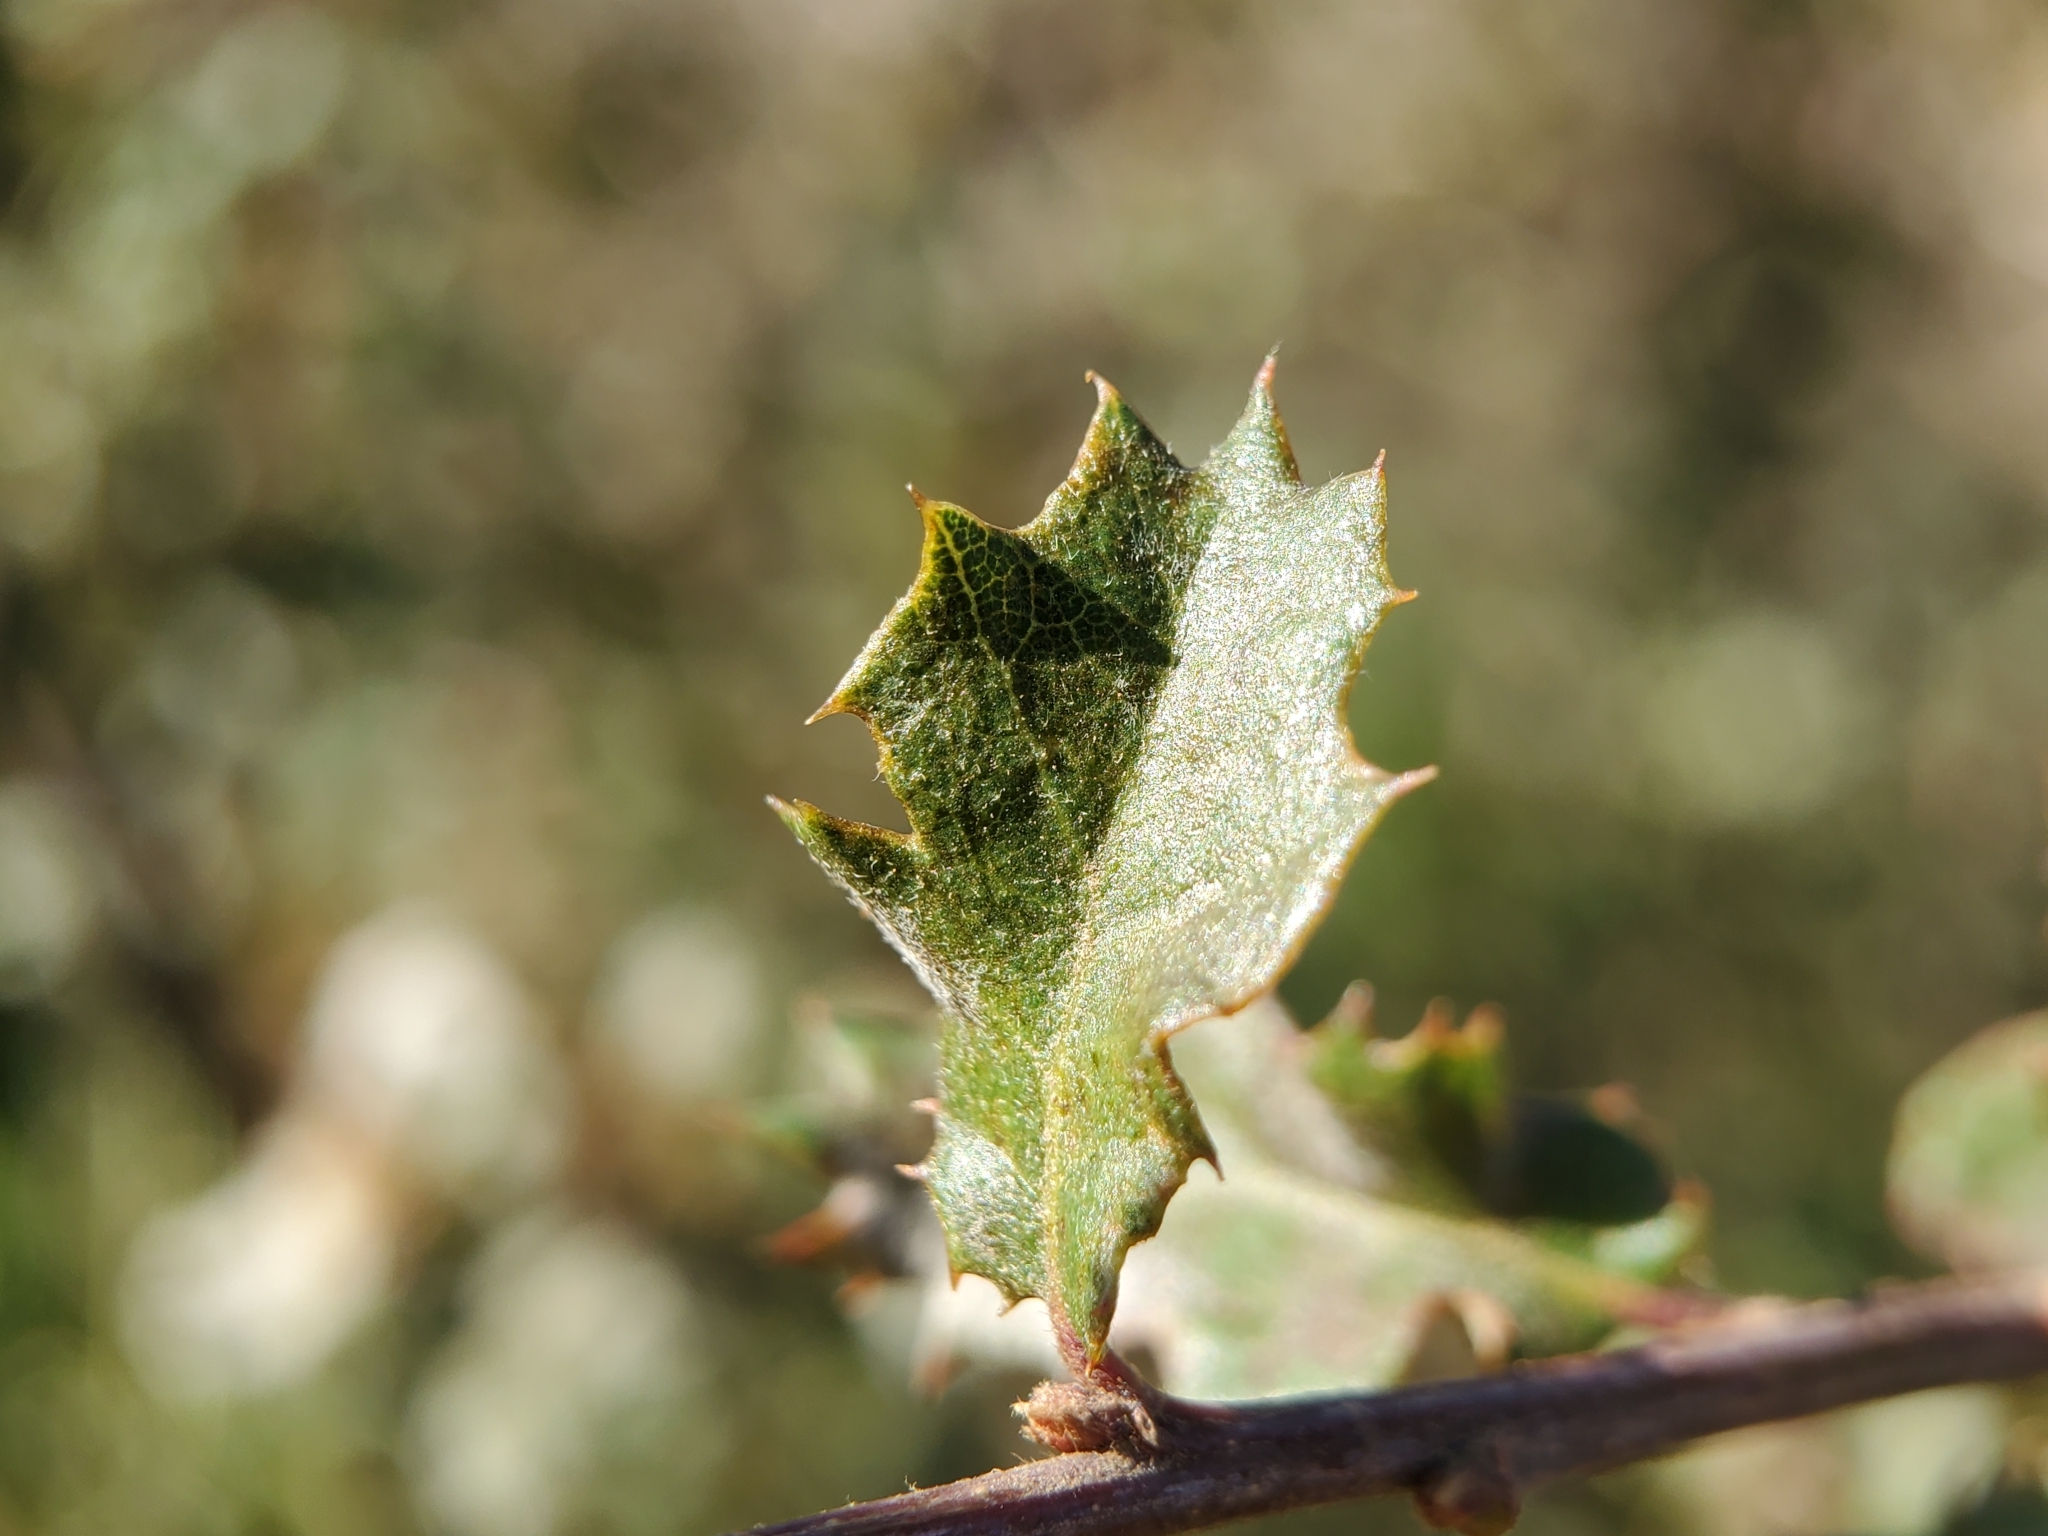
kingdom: Plantae
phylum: Tracheophyta
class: Magnoliopsida
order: Fagales
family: Fagaceae
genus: Quercus
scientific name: Quercus berberidifolia
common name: California scrub oak
